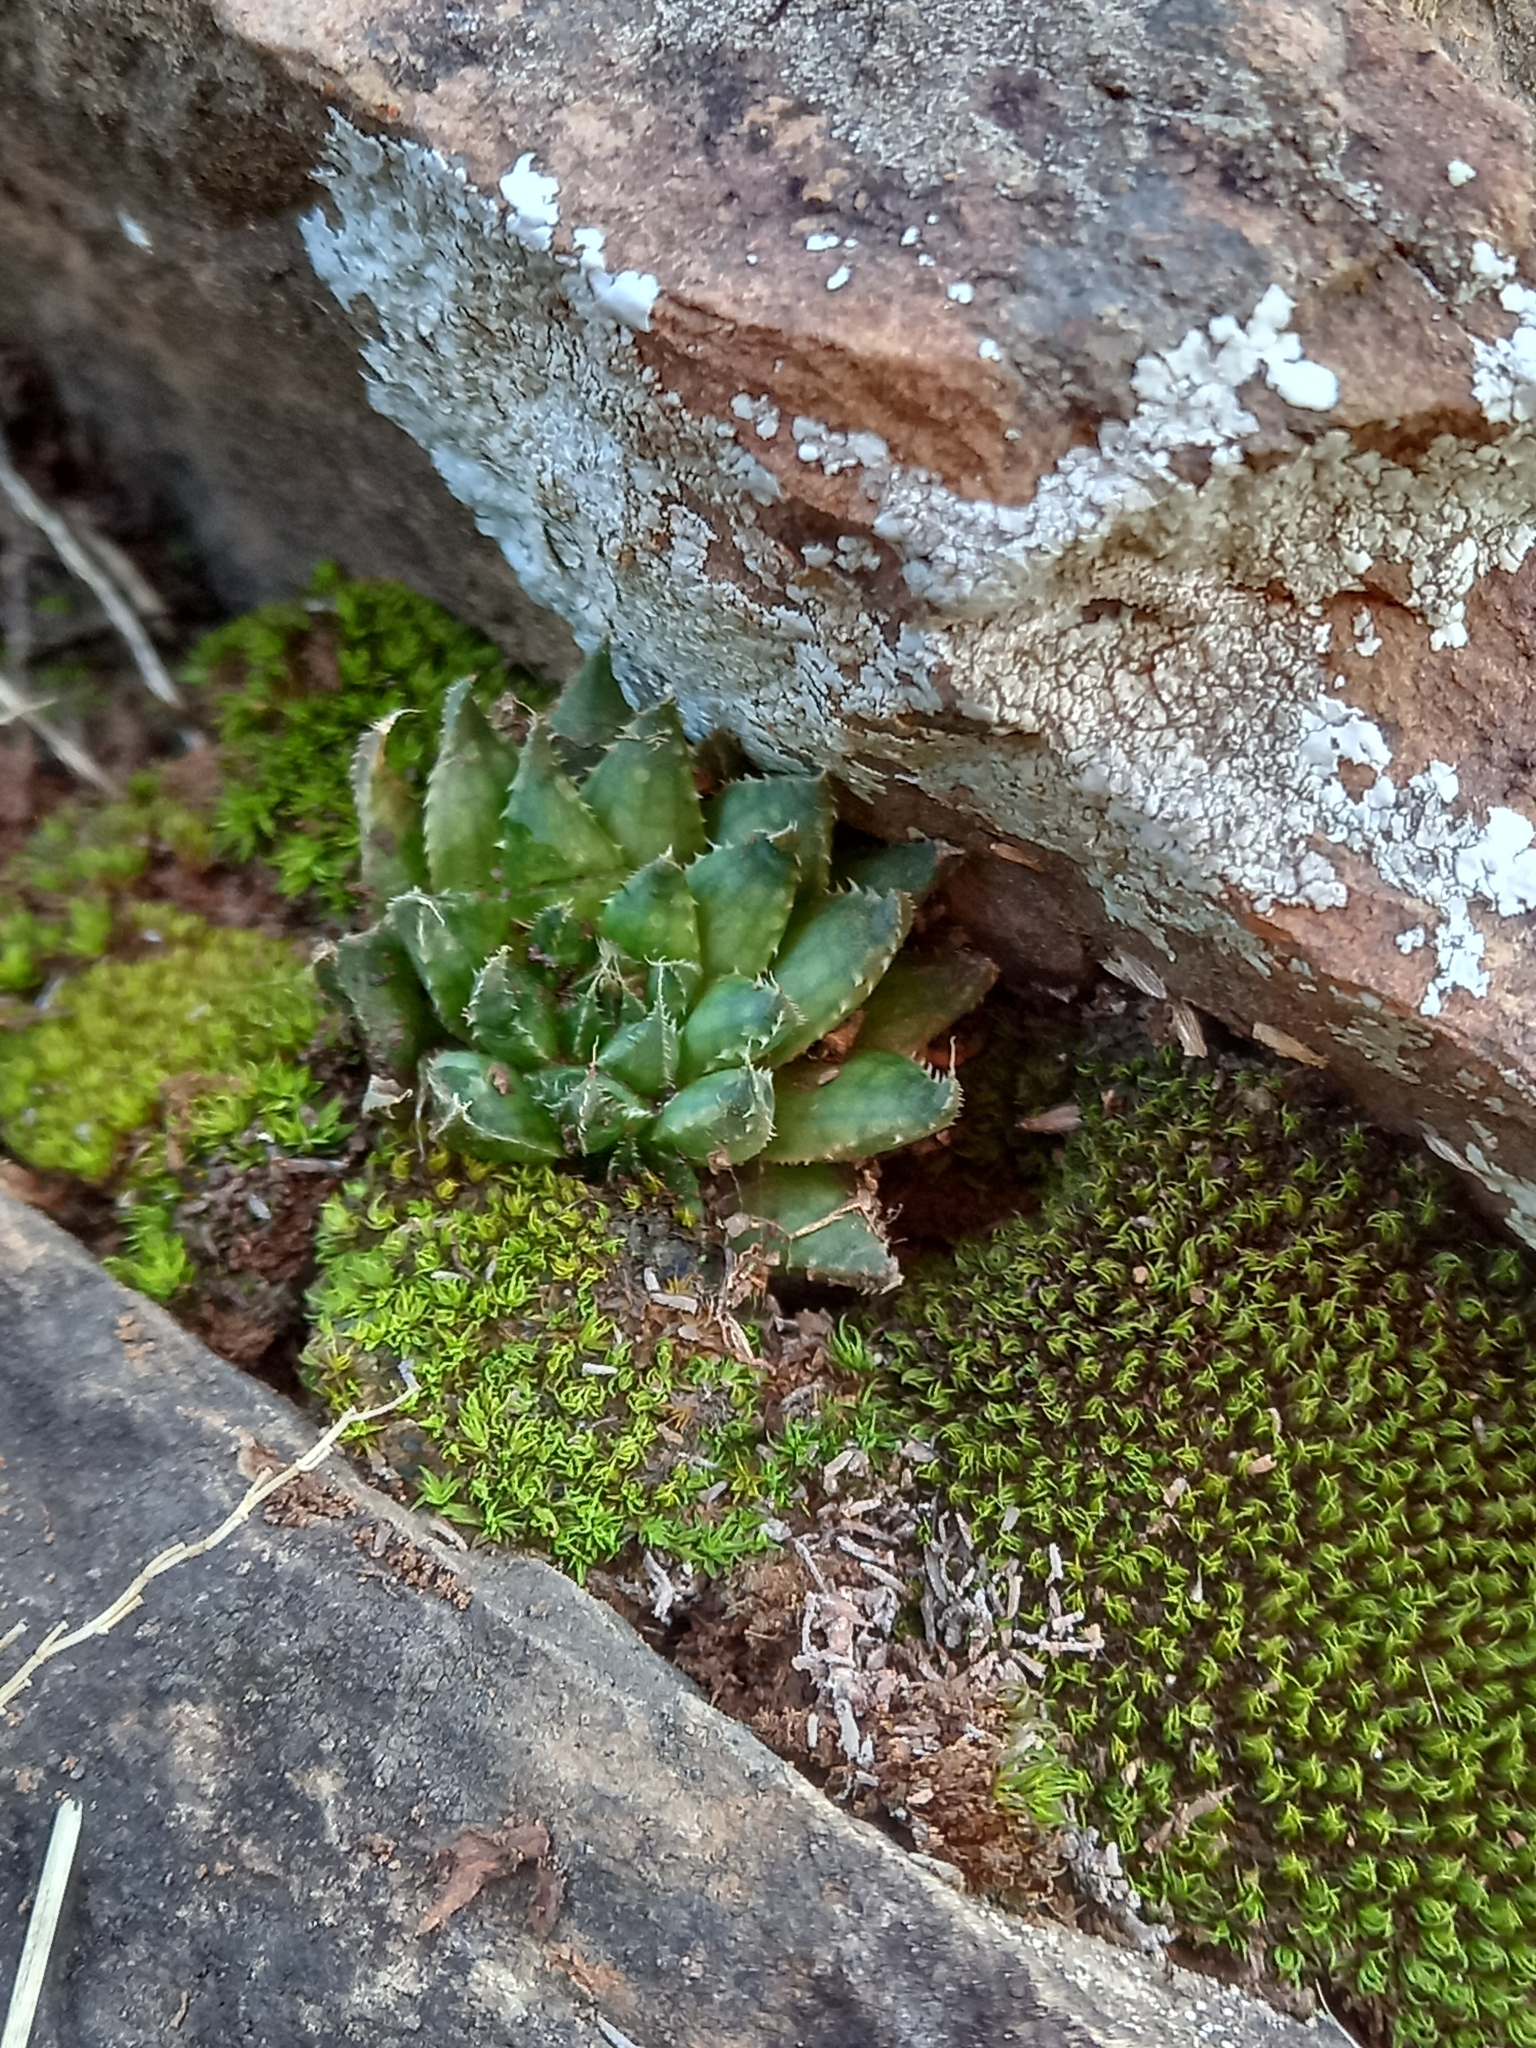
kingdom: Plantae
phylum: Tracheophyta
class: Liliopsida
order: Asparagales
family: Asphodelaceae
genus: Haworthia
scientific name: Haworthia marumiana
